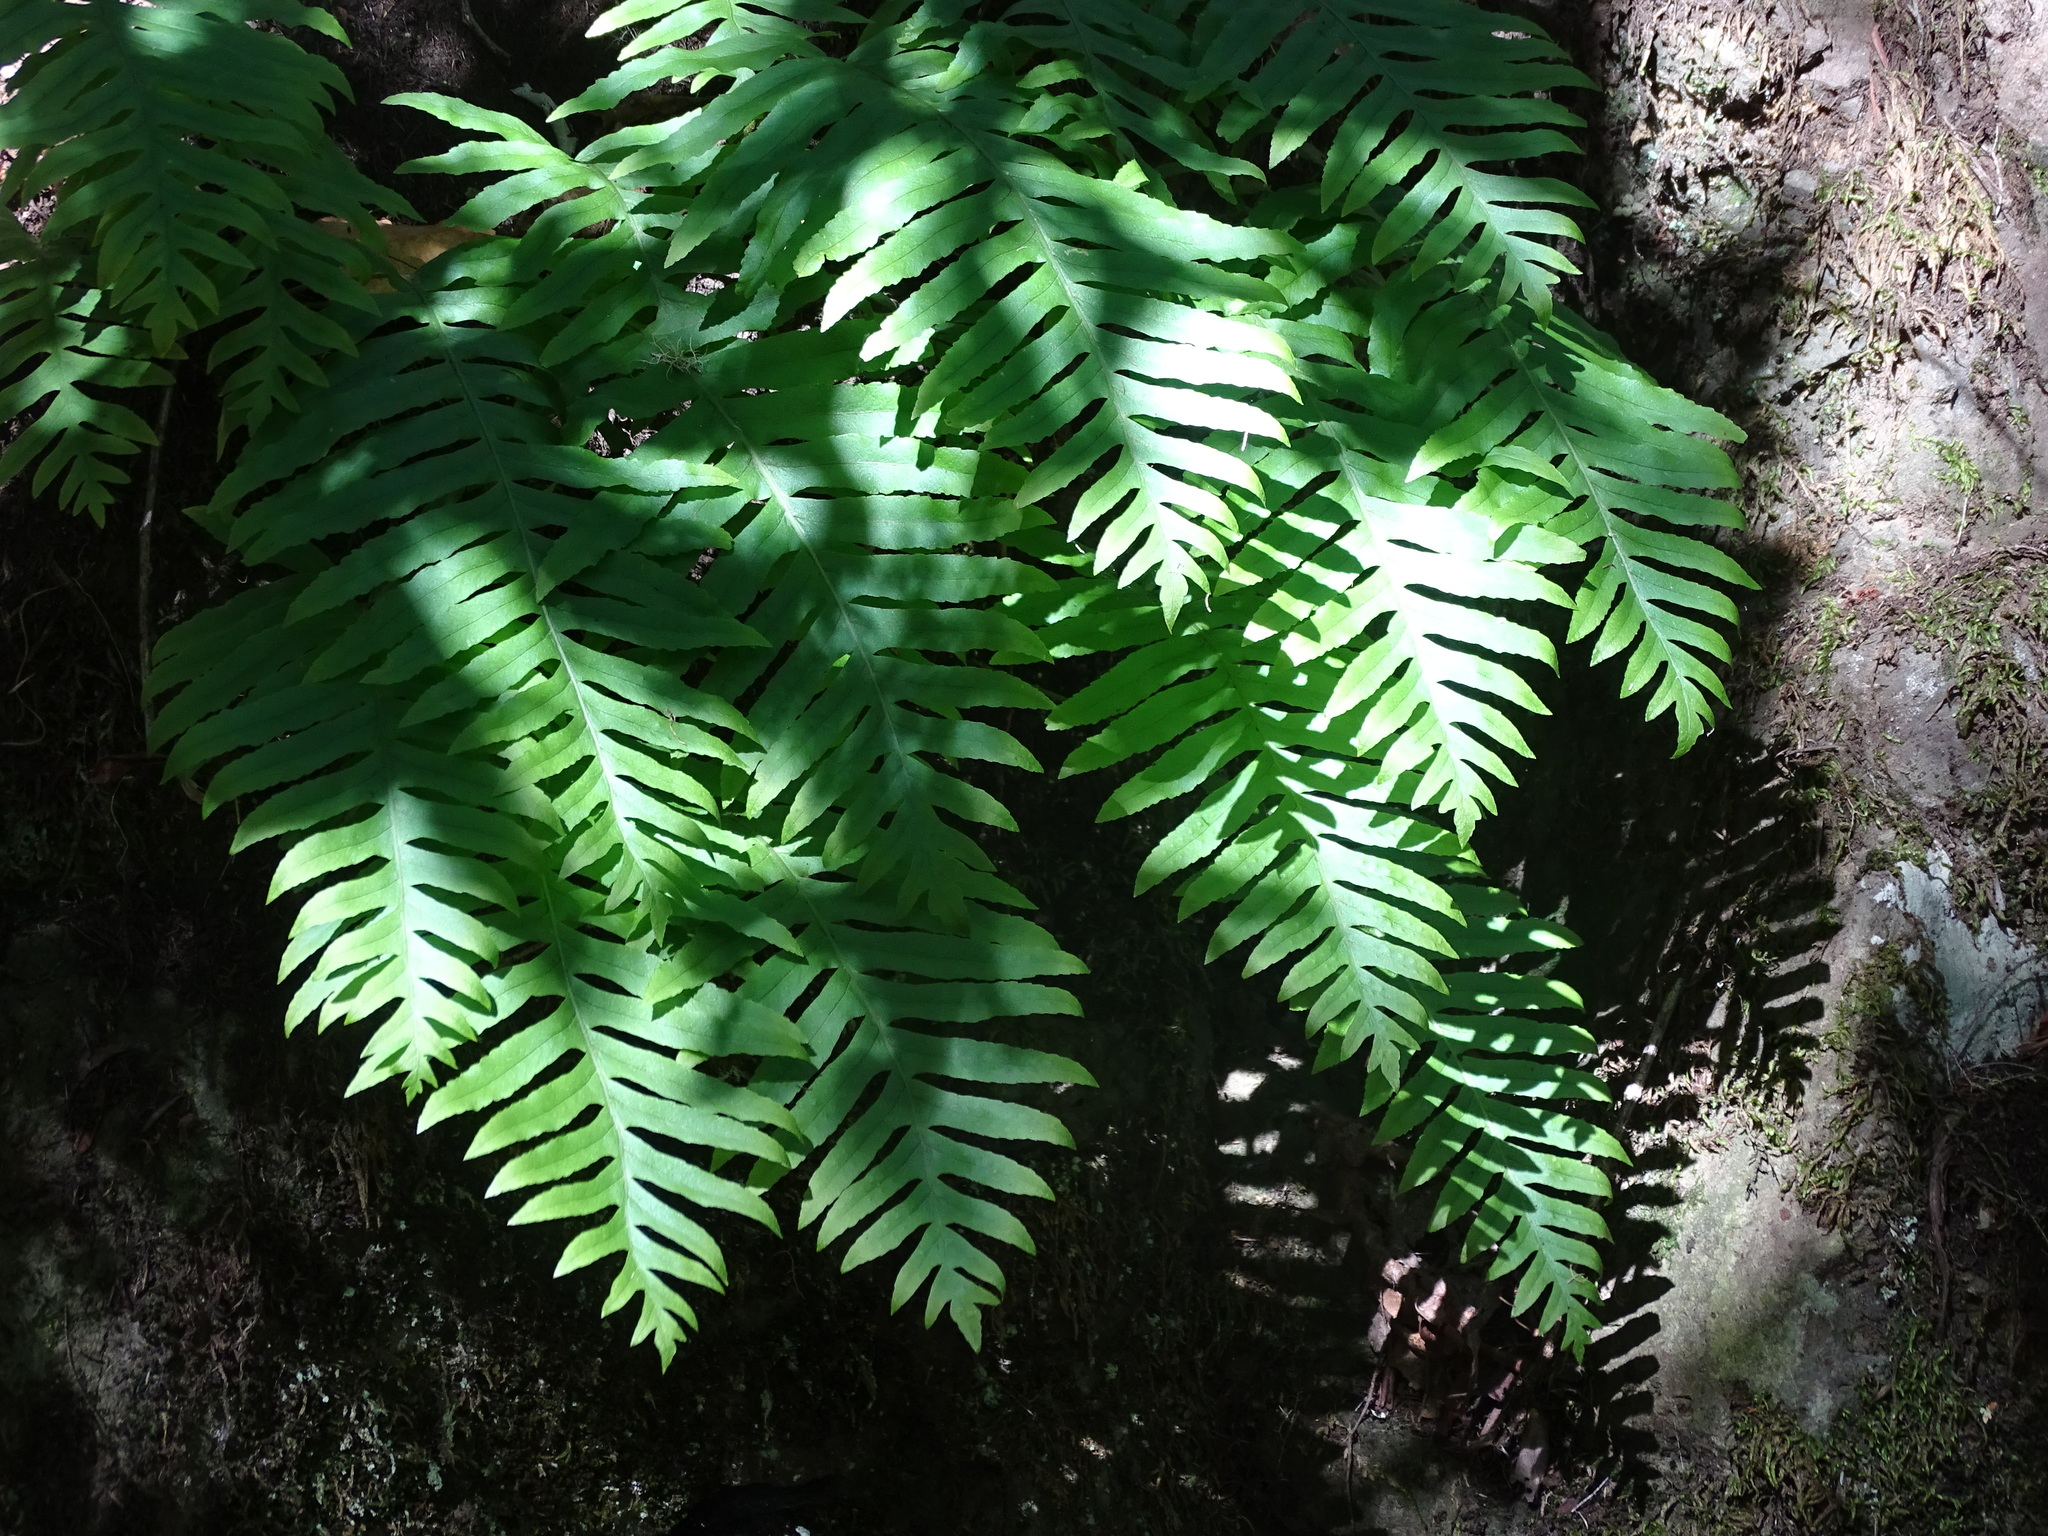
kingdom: Plantae
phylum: Tracheophyta
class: Polypodiopsida
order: Polypodiales
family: Polypodiaceae
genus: Polypodium
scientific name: Polypodium macaronesicum
